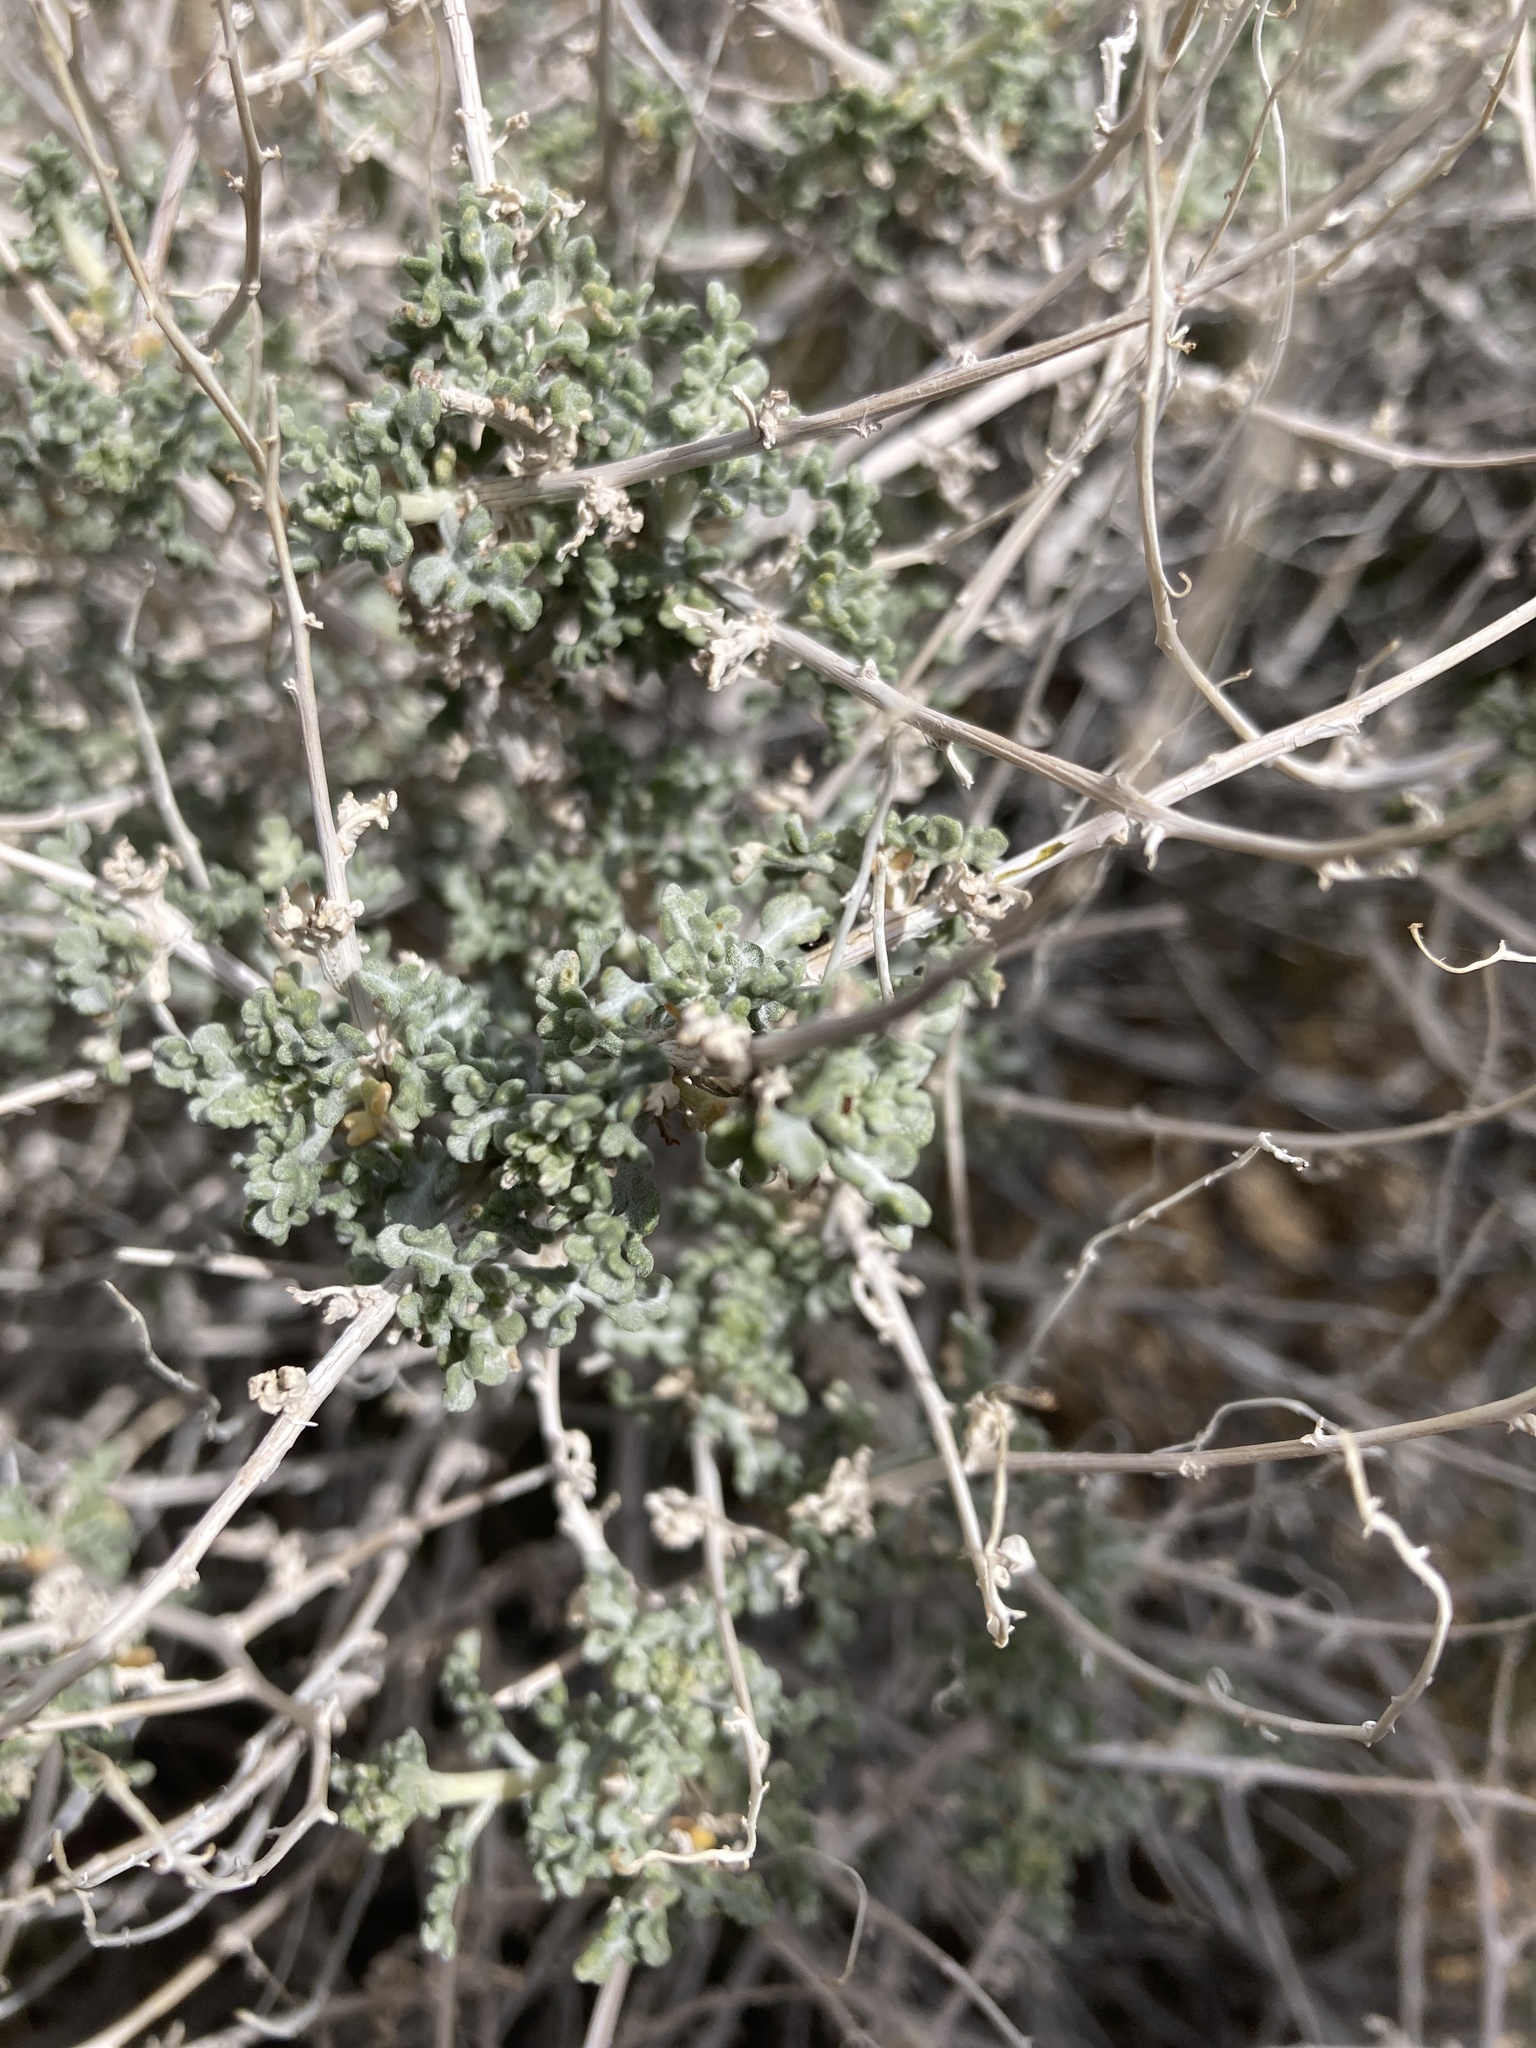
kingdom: Plantae
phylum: Tracheophyta
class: Magnoliopsida
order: Asterales
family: Asteraceae
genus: Ambrosia
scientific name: Ambrosia dumosa
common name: Bur-sage
